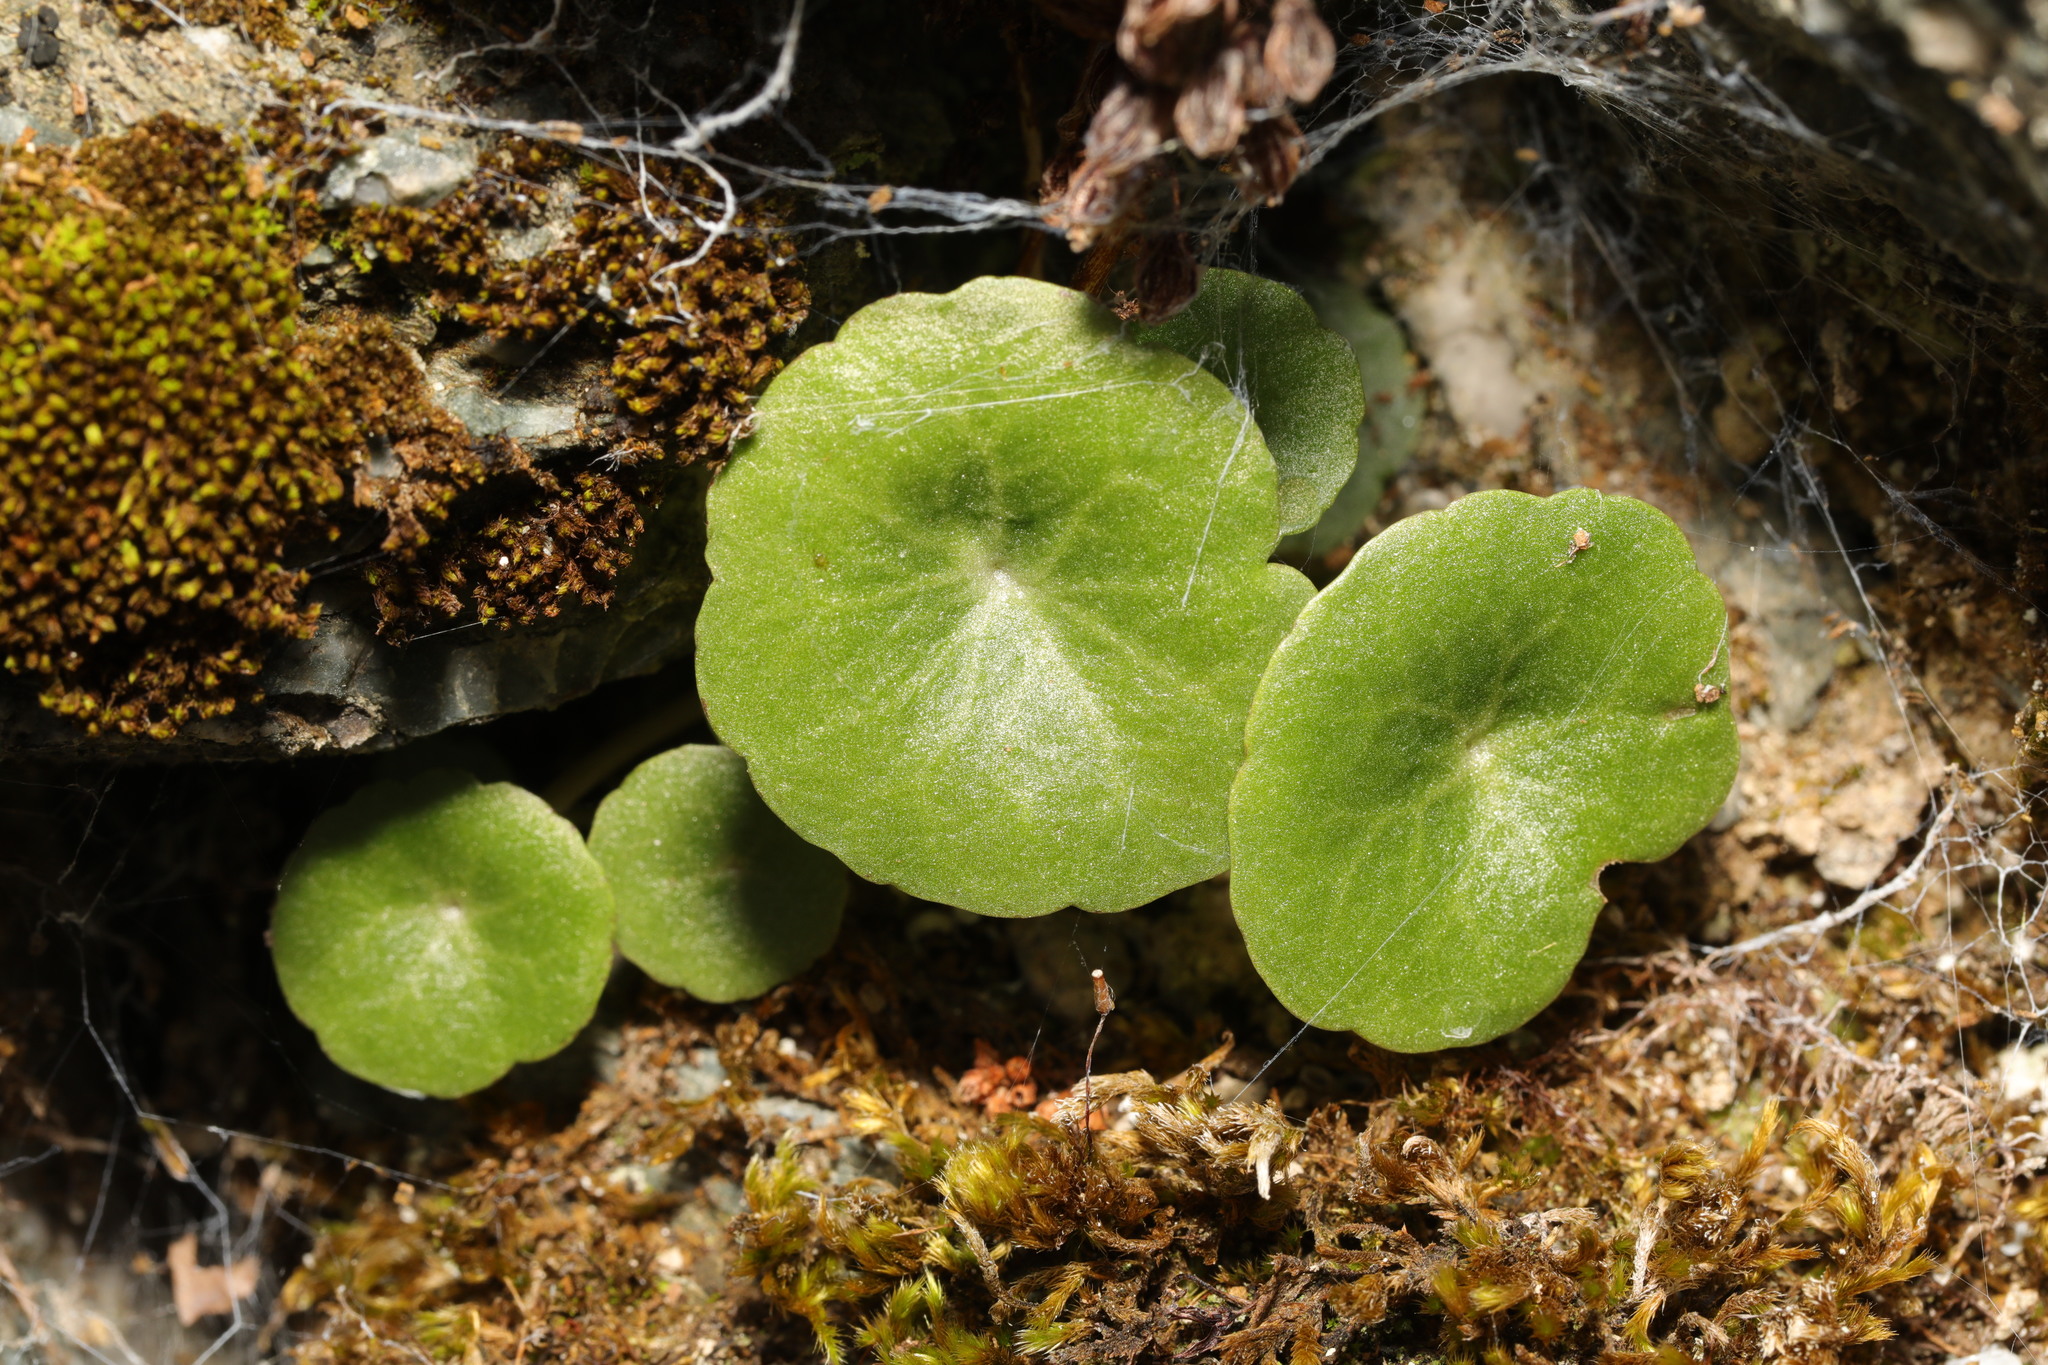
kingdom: Plantae
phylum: Tracheophyta
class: Magnoliopsida
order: Saxifragales
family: Crassulaceae
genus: Umbilicus
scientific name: Umbilicus rupestris
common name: Navelwort
